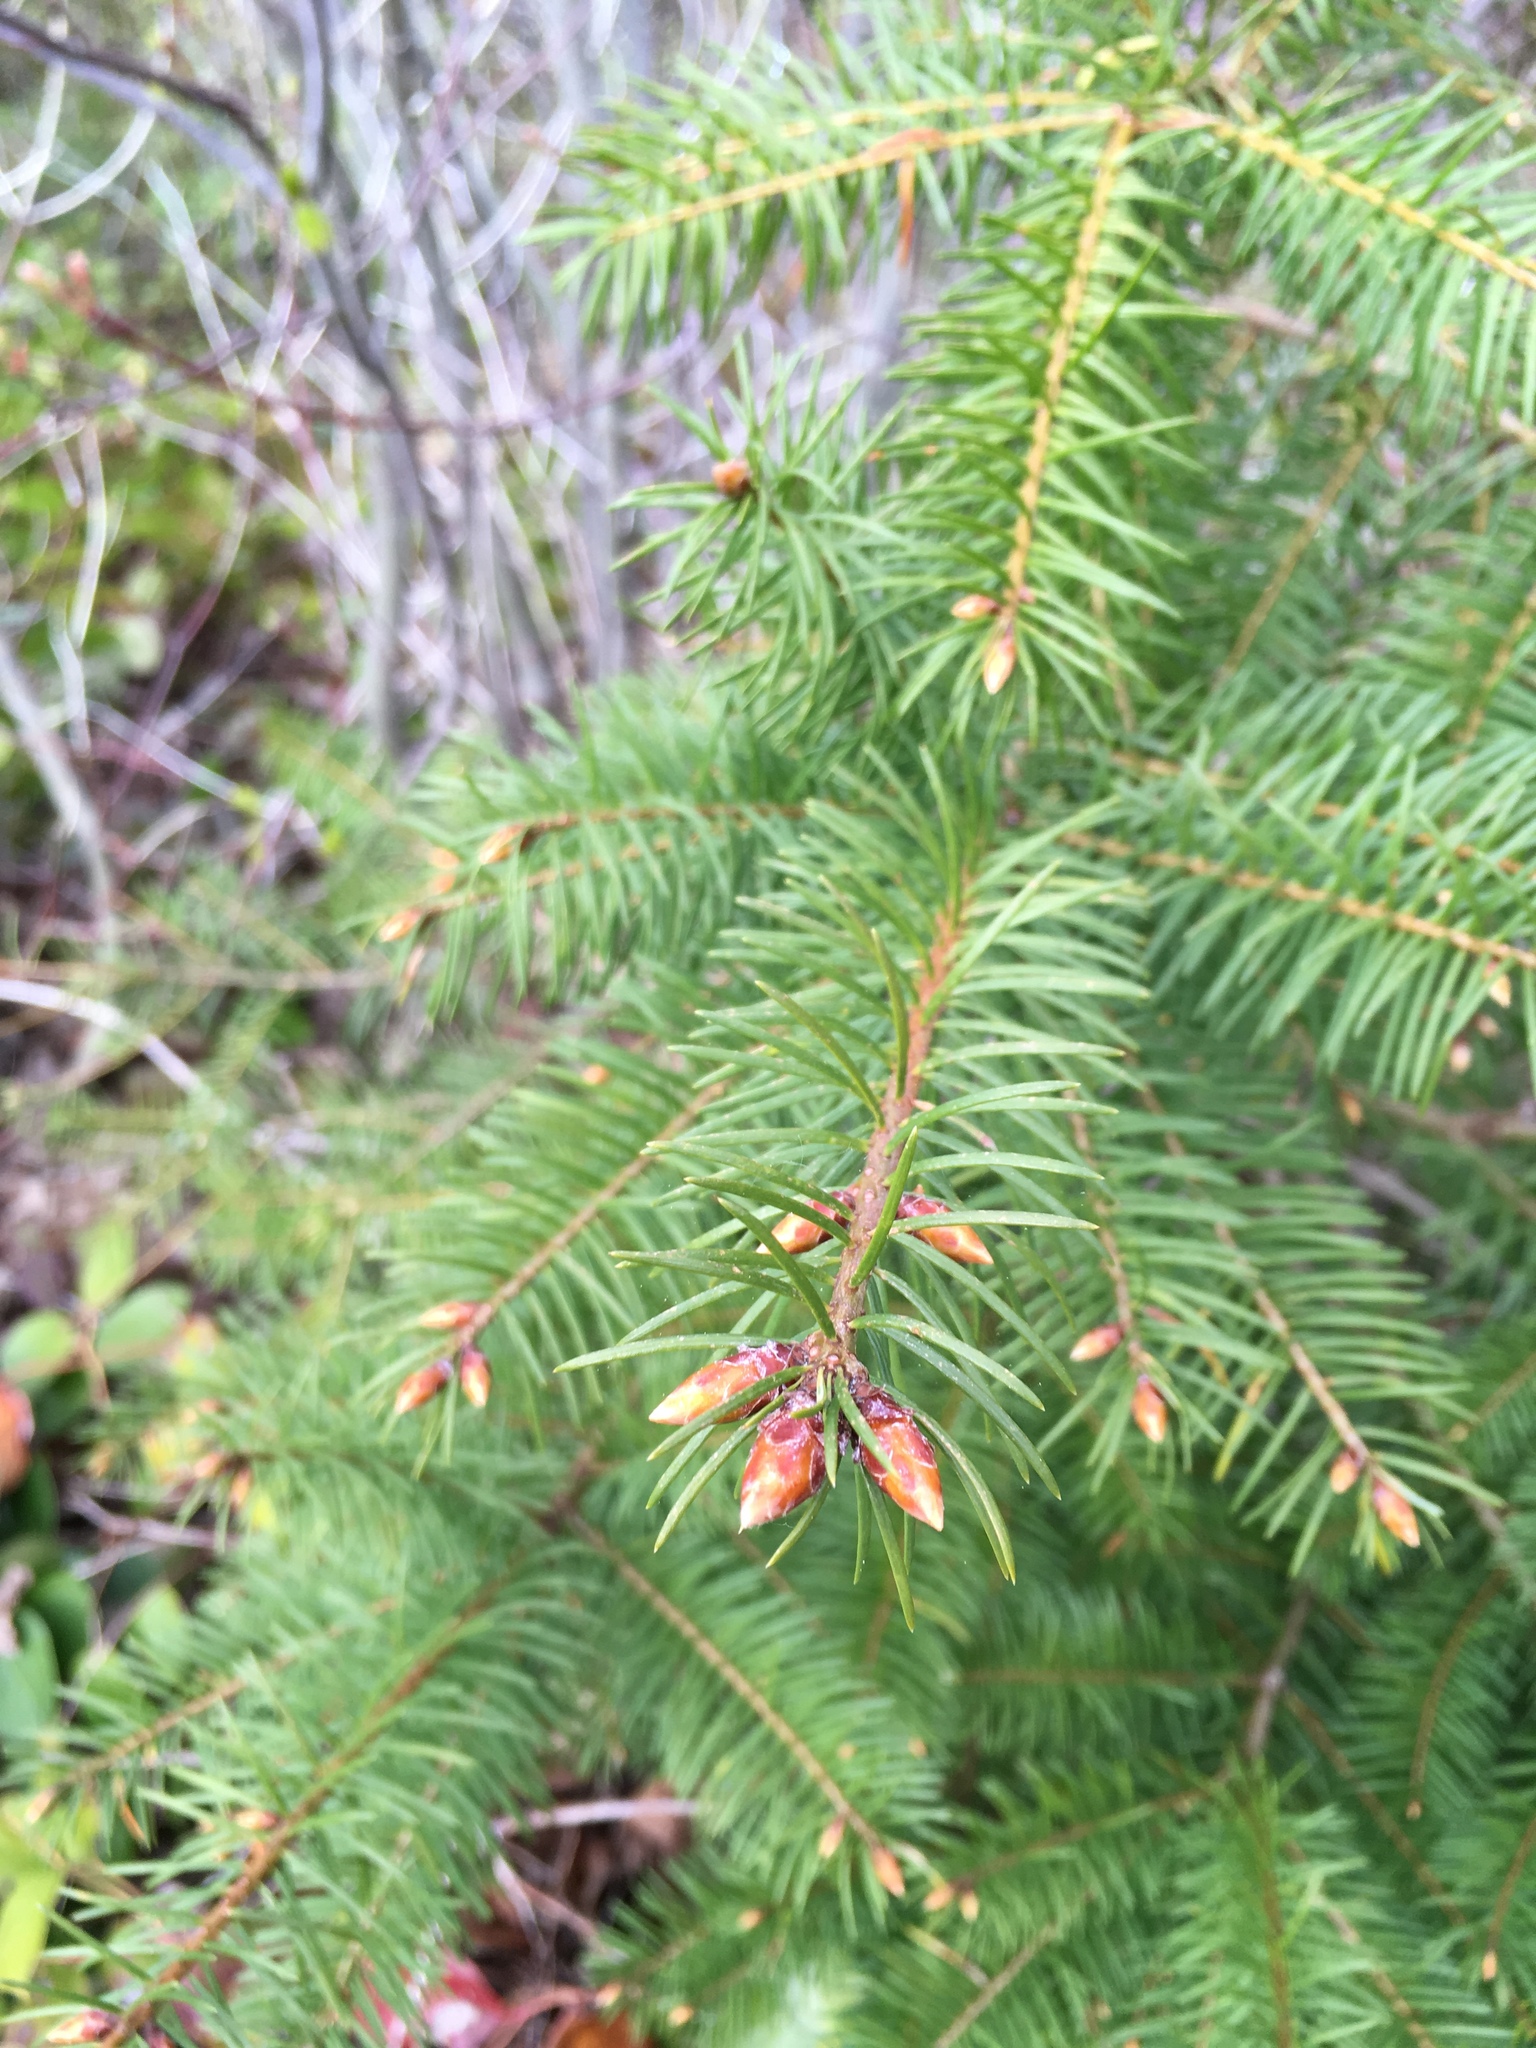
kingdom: Plantae
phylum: Tracheophyta
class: Pinopsida
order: Pinales
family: Pinaceae
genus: Pseudotsuga
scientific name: Pseudotsuga menziesii
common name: Douglas fir
